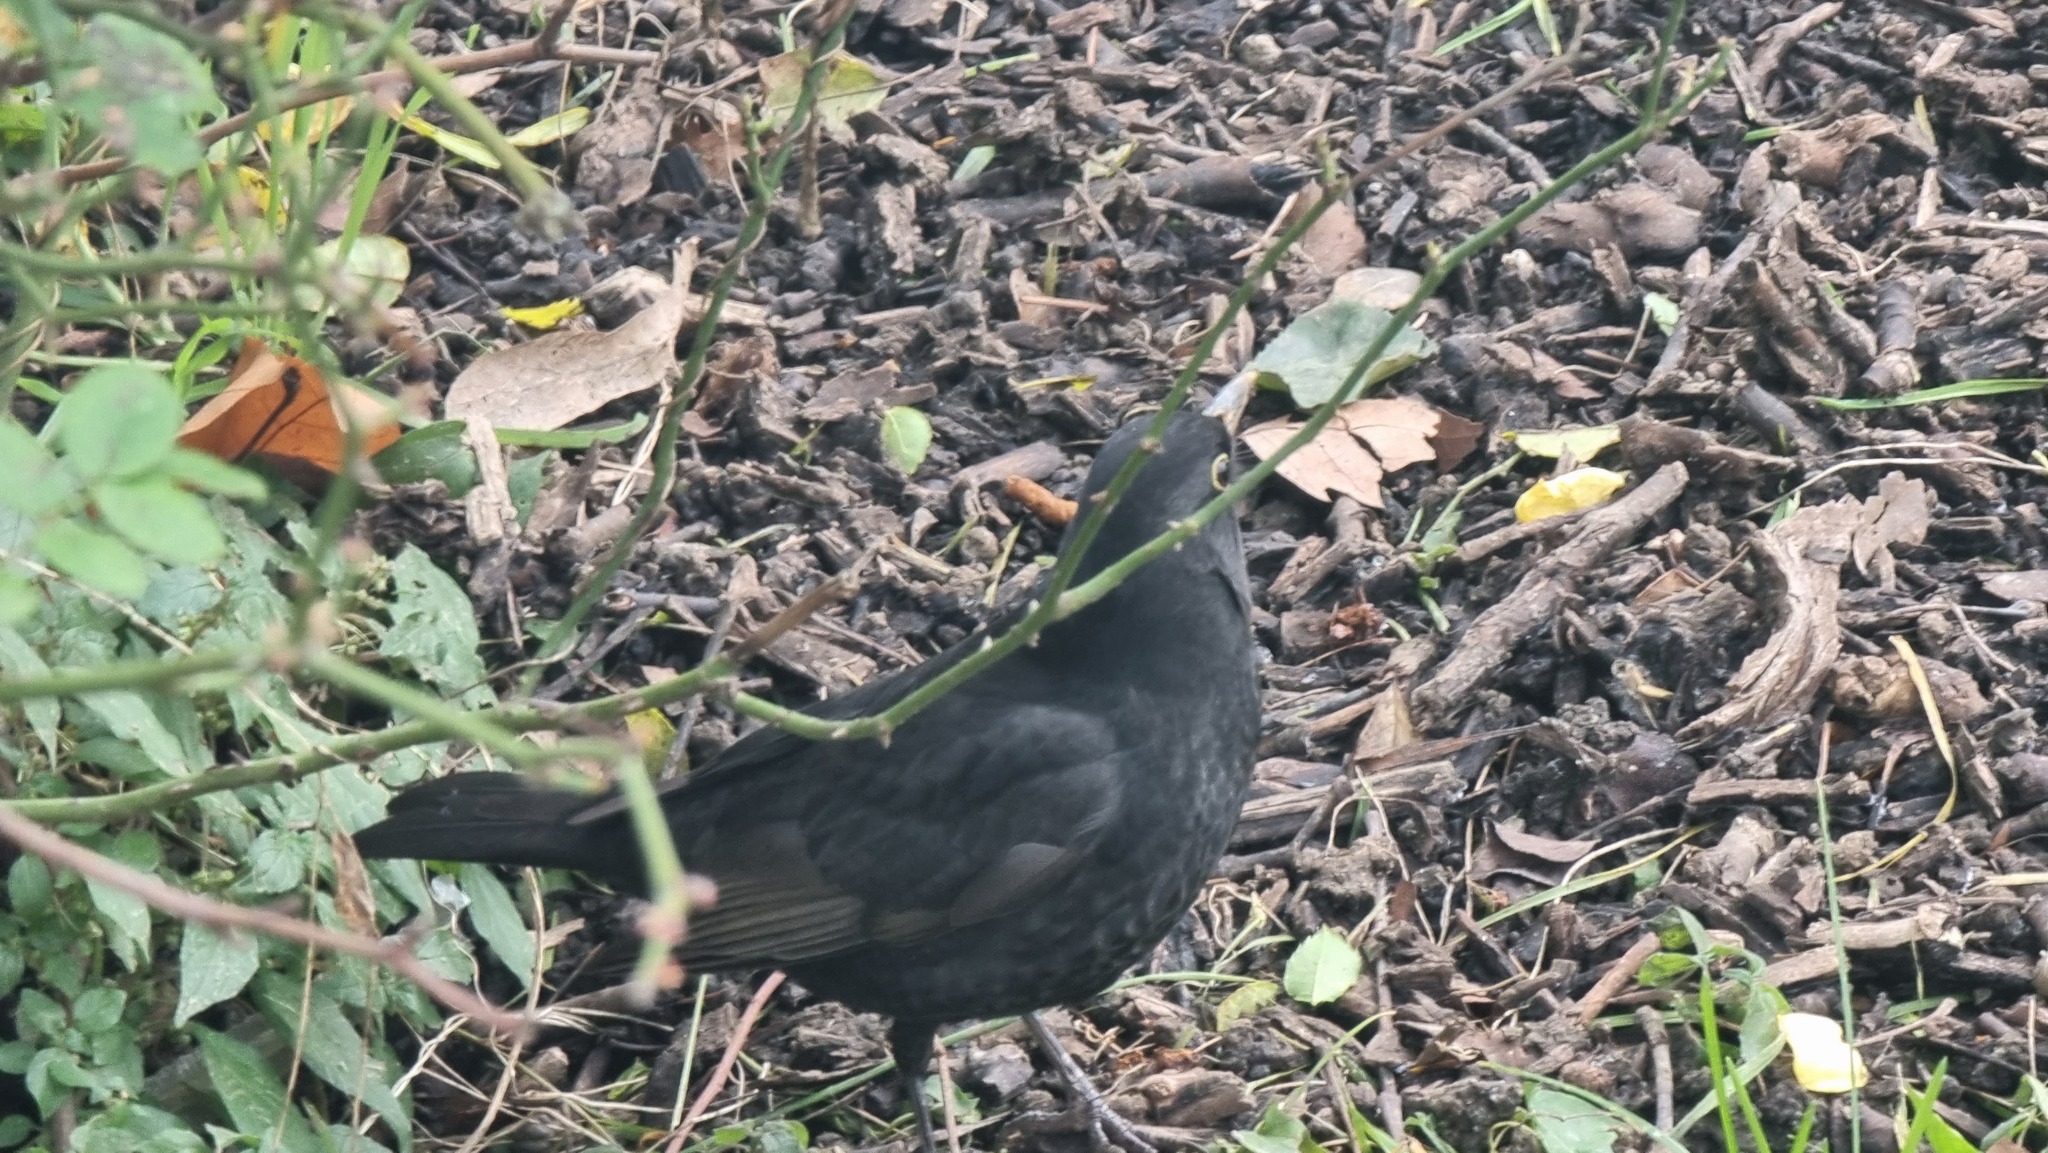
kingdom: Animalia
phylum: Chordata
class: Aves
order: Passeriformes
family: Turdidae
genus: Turdus
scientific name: Turdus merula
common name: Common blackbird
